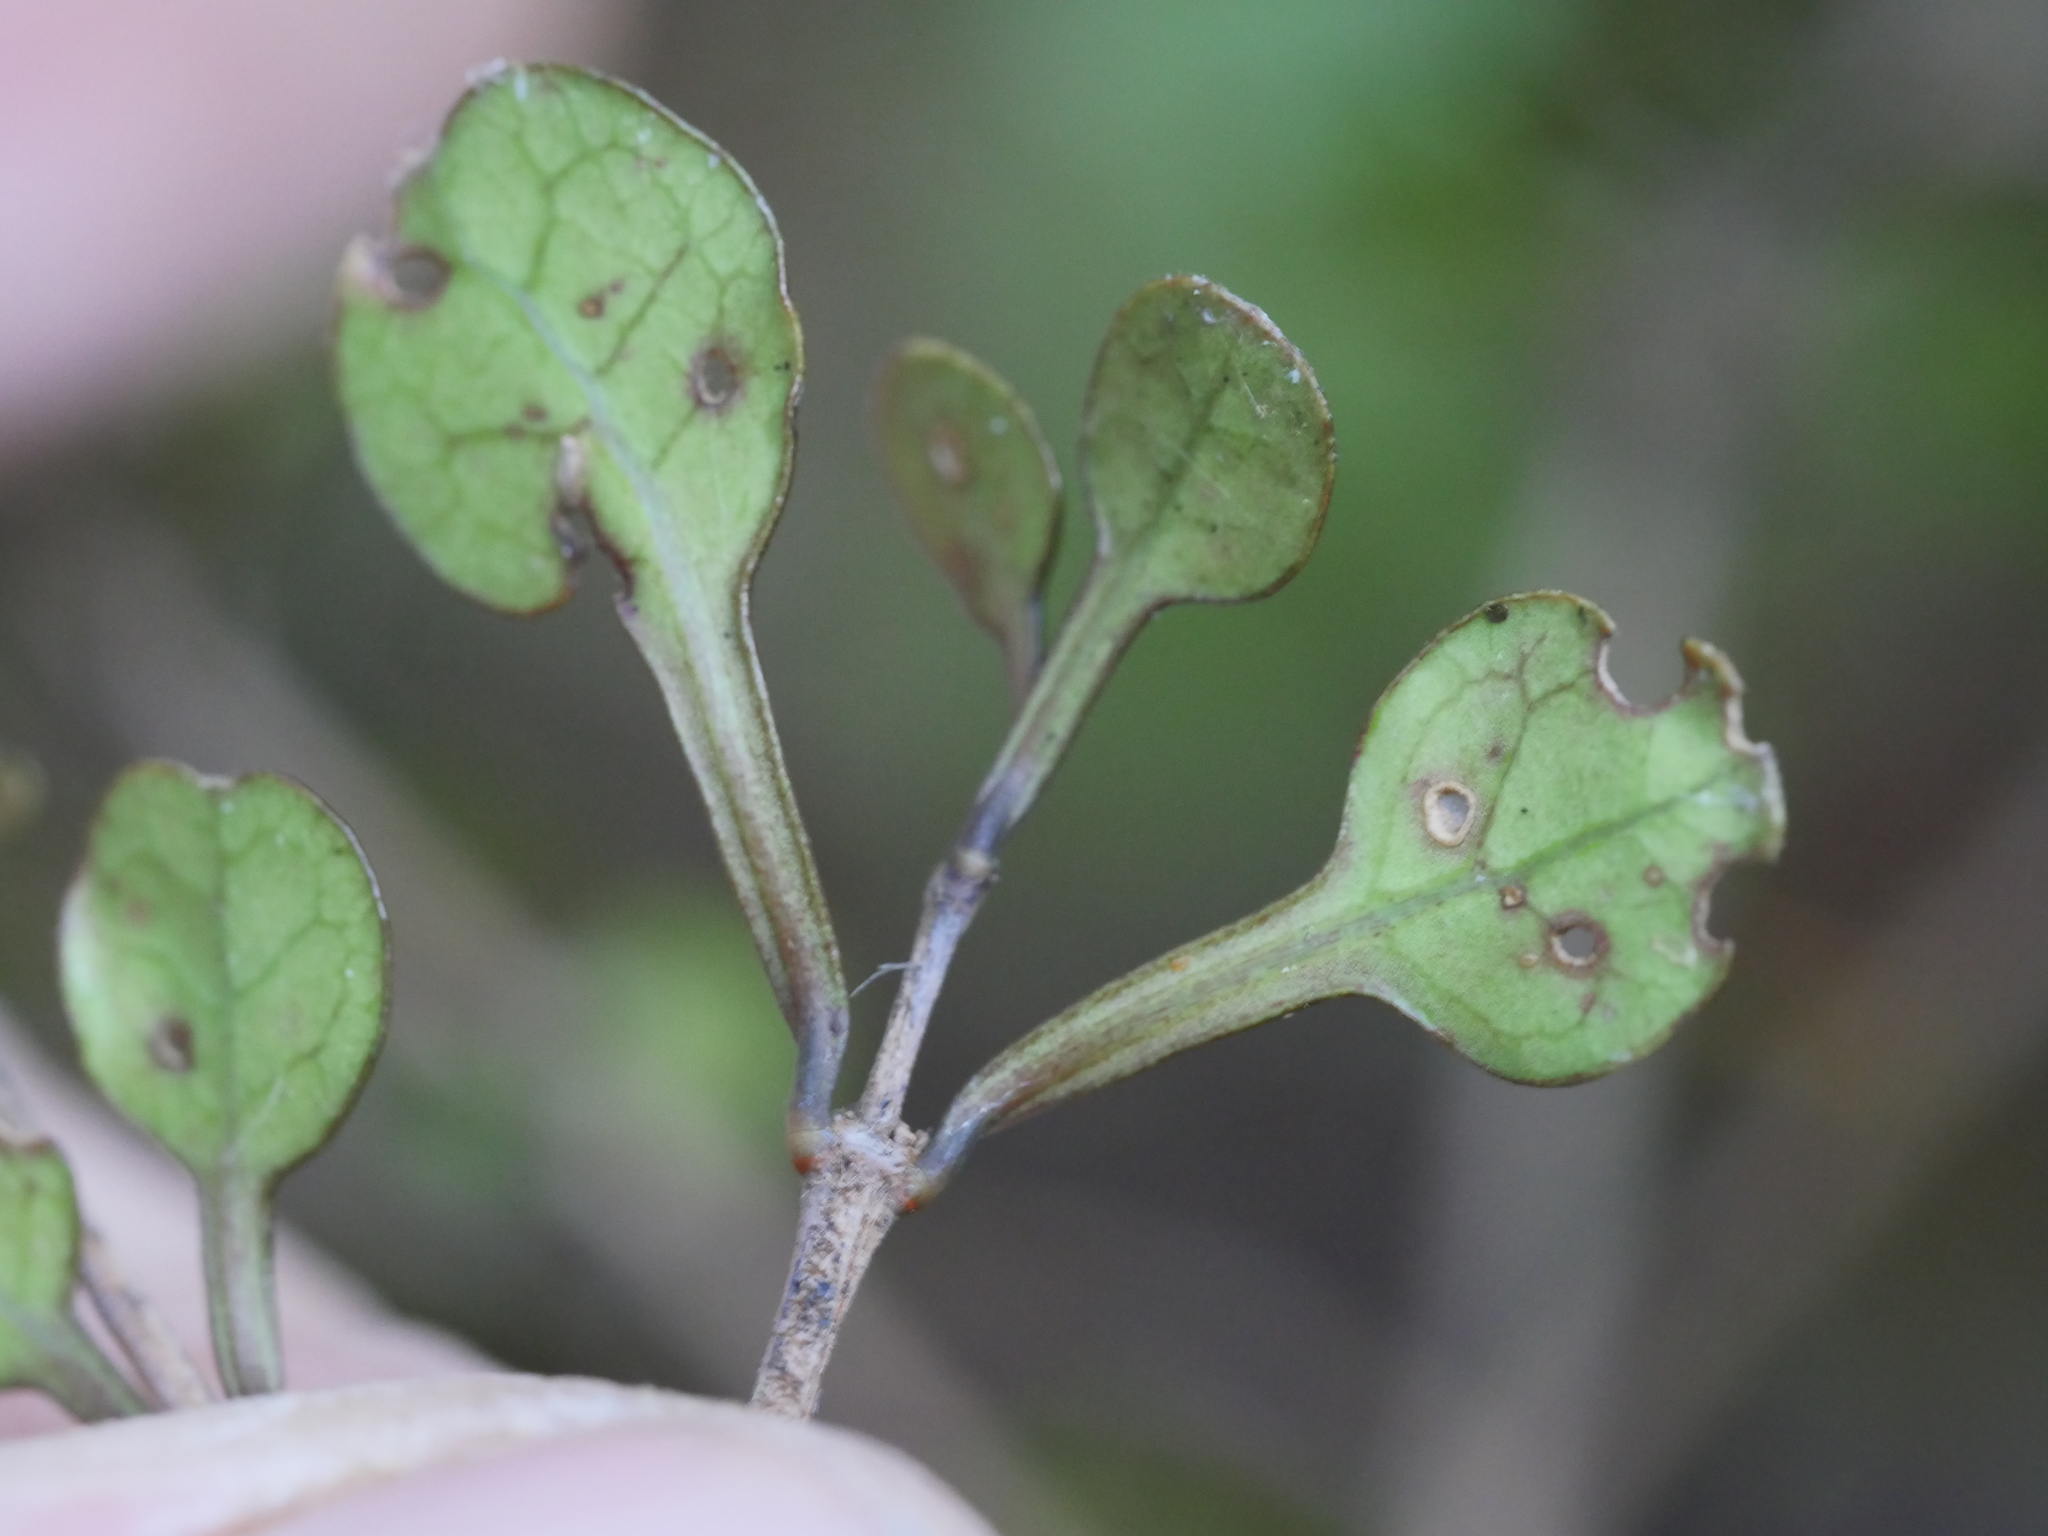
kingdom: Plantae
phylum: Tracheophyta
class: Magnoliopsida
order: Gentianales
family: Rubiaceae
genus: Coprosma
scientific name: Coprosma spathulata
